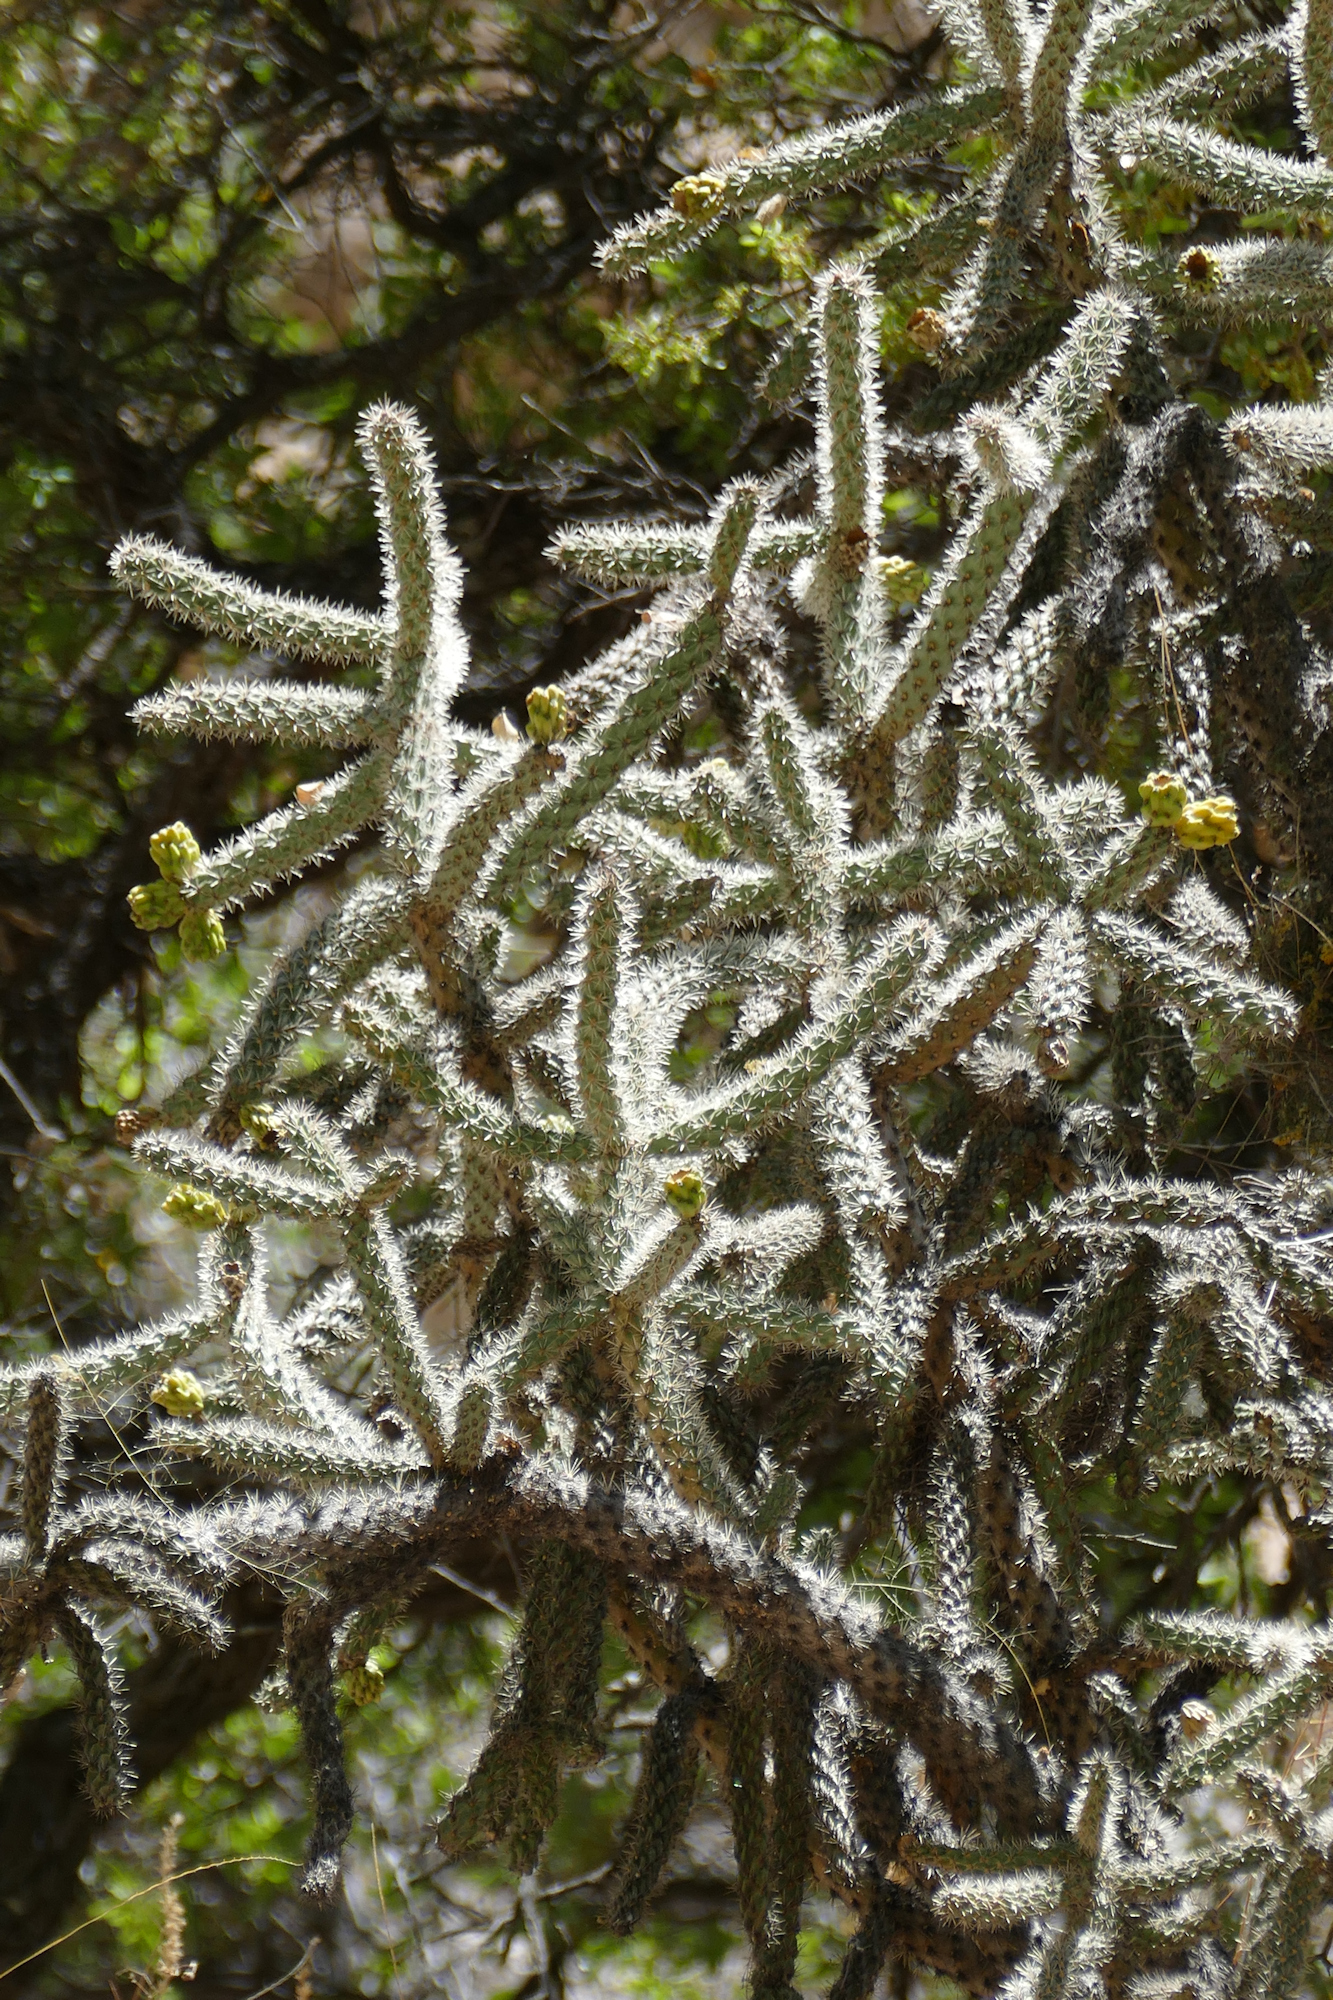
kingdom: Plantae
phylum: Tracheophyta
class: Magnoliopsida
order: Caryophyllales
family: Cactaceae
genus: Cylindropuntia
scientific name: Cylindropuntia imbricata
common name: Candelabrum cactus
